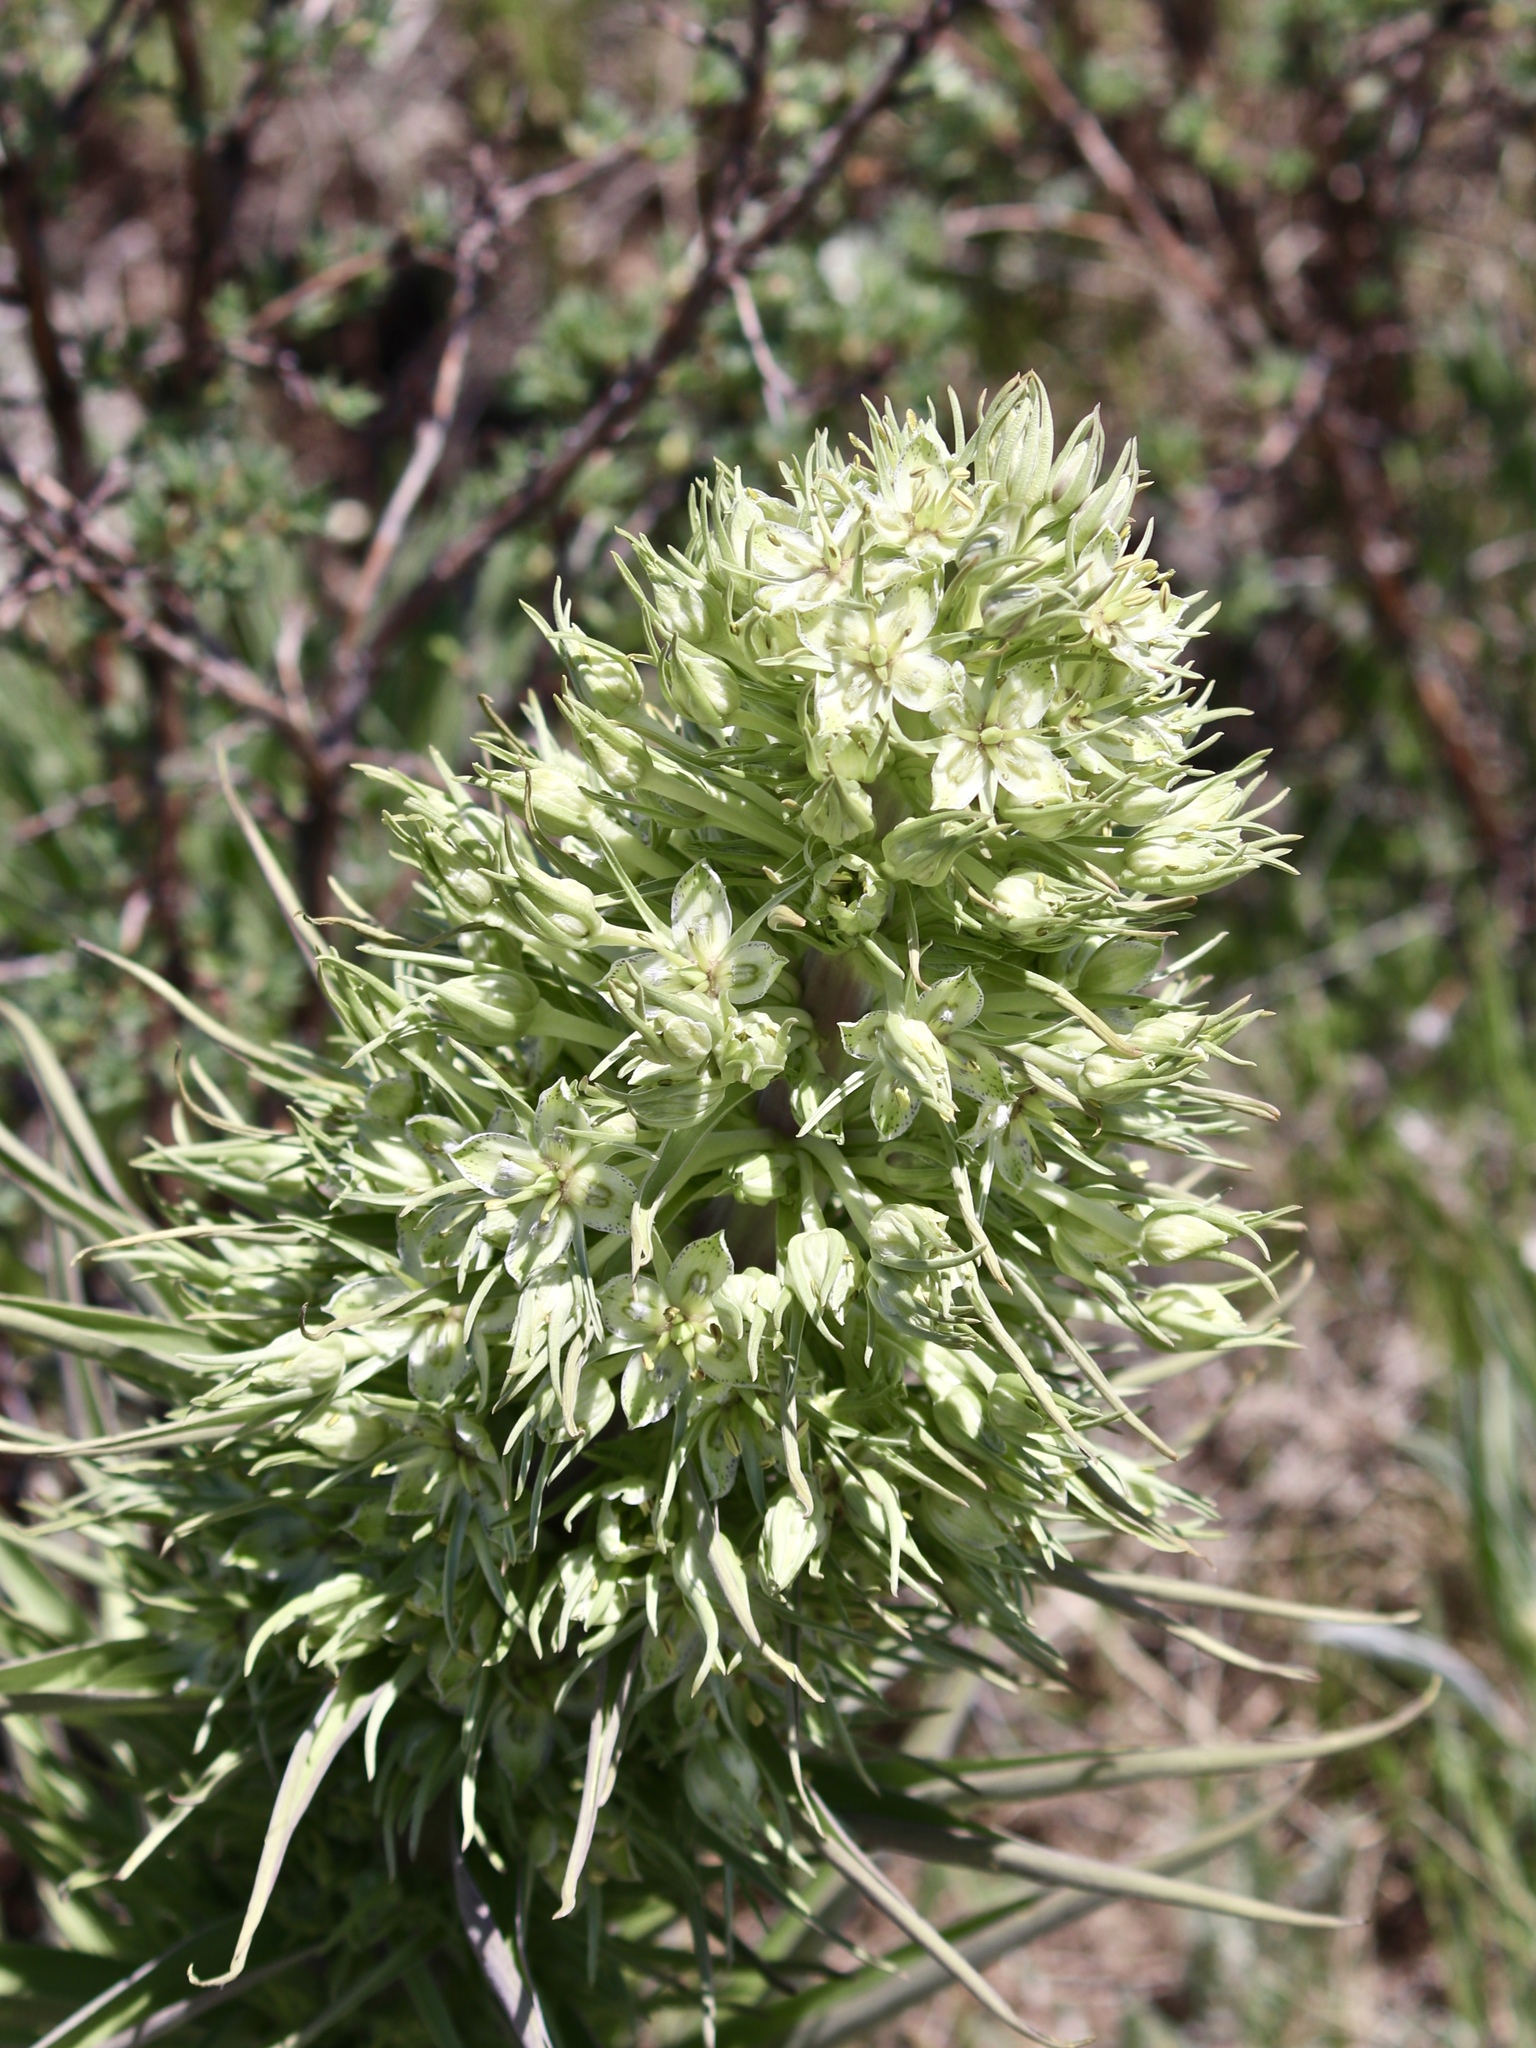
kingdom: Plantae
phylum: Tracheophyta
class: Magnoliopsida
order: Gentianales
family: Gentianaceae
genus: Frasera
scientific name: Frasera speciosa
